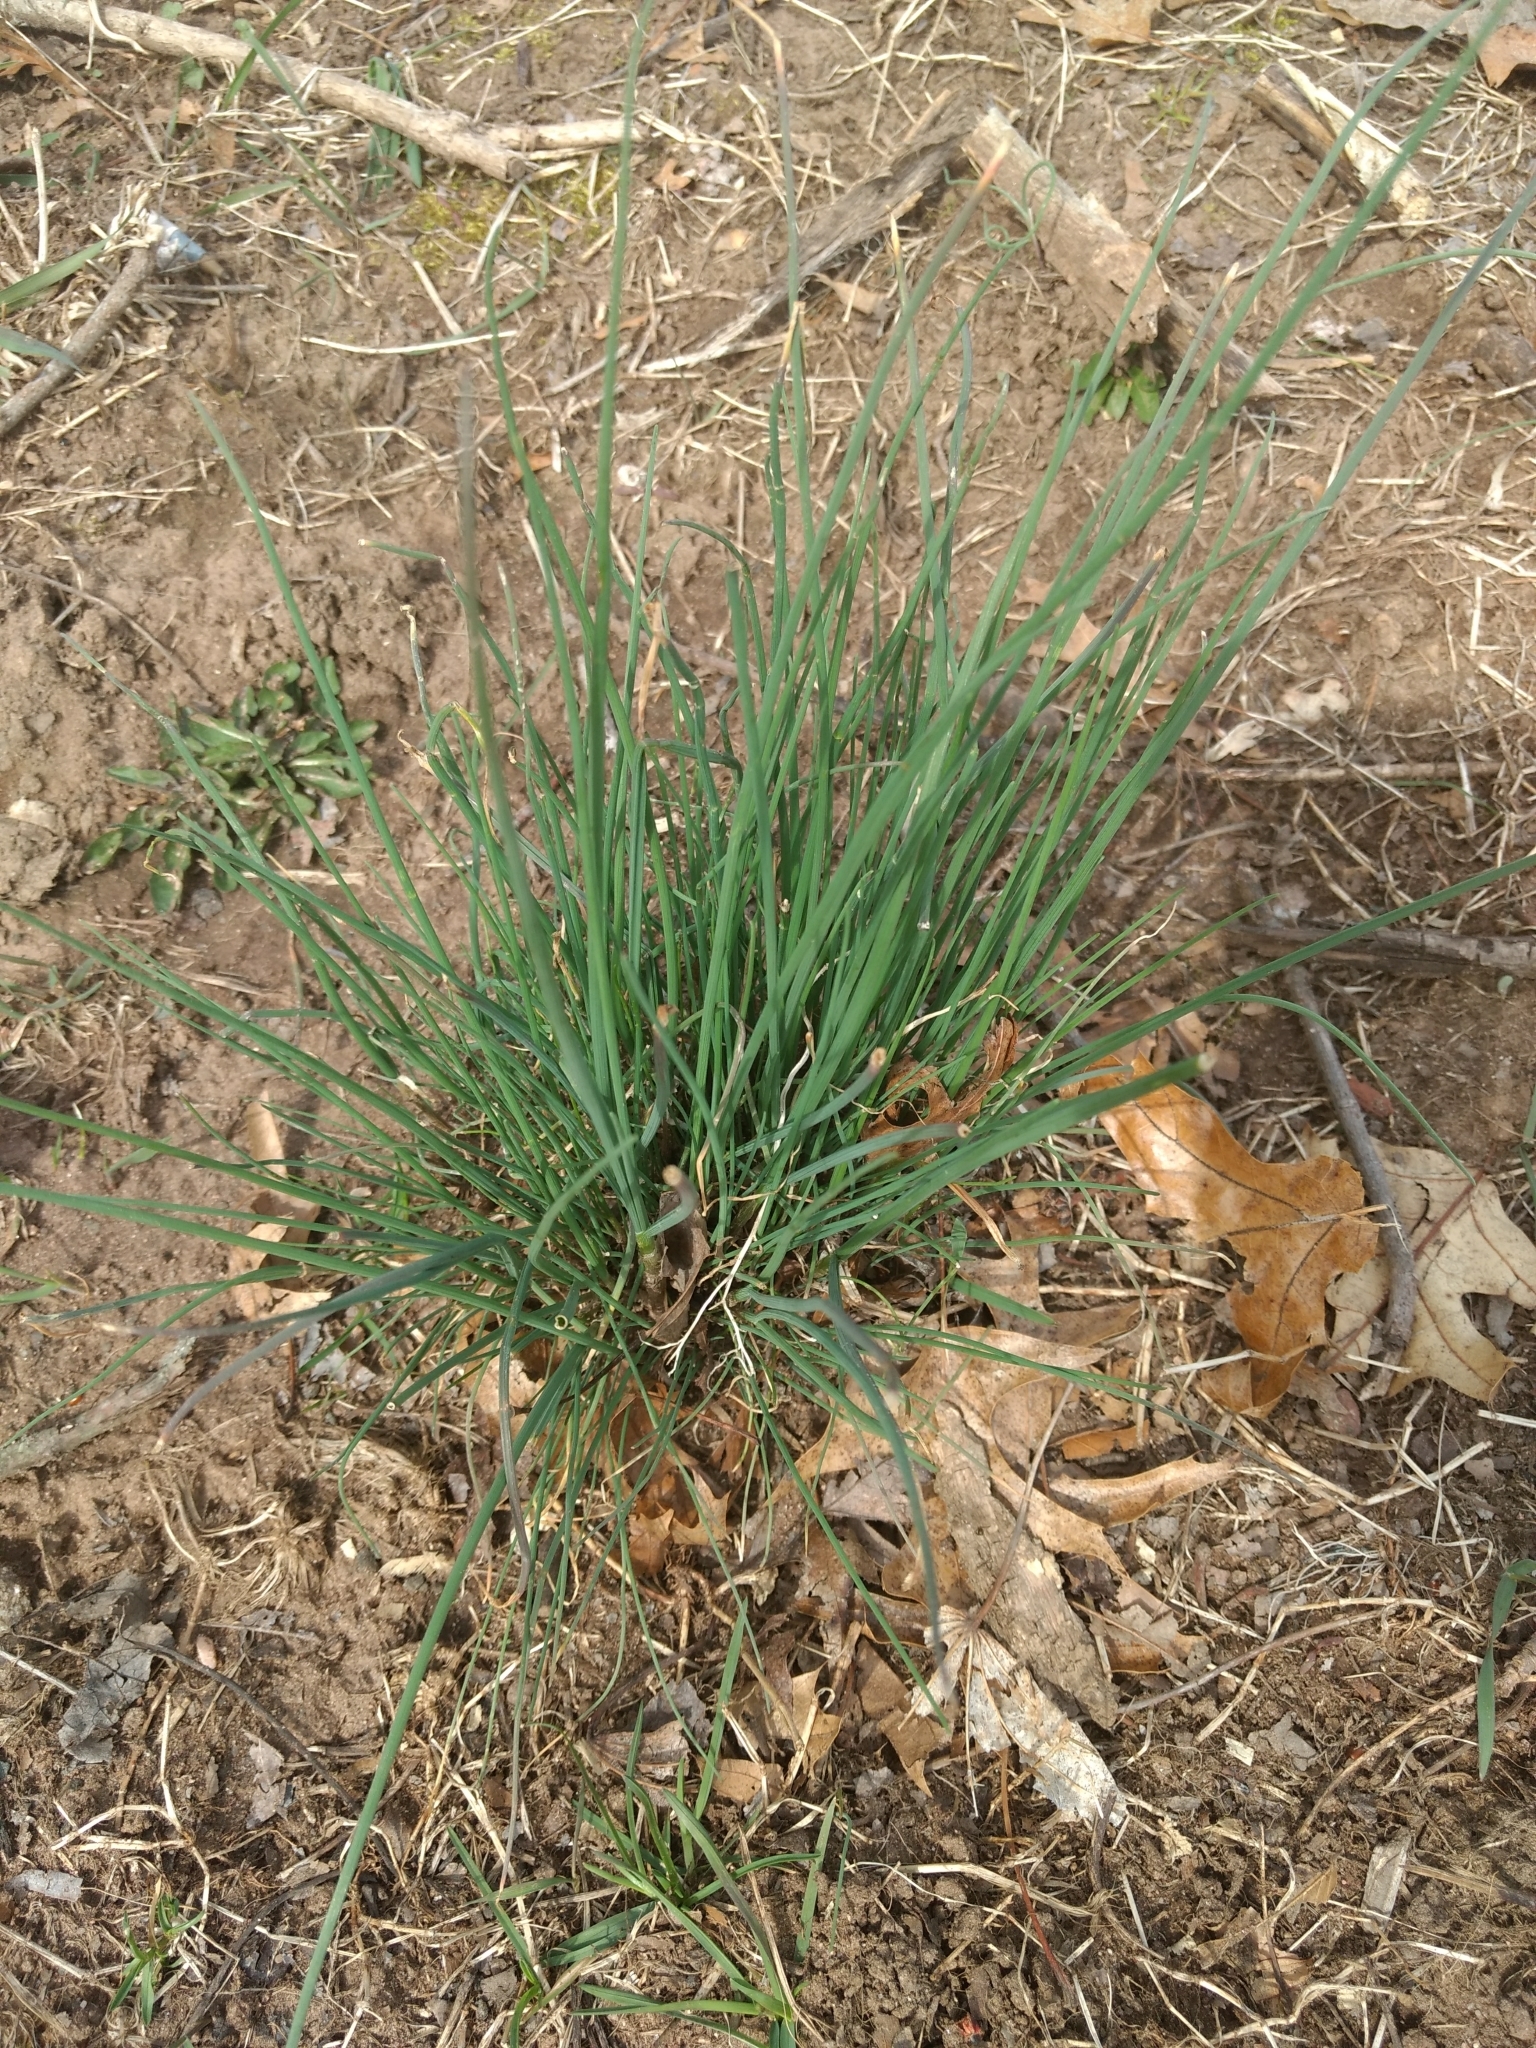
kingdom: Plantae
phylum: Tracheophyta
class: Liliopsida
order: Asparagales
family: Amaryllidaceae
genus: Allium
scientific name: Allium vineale
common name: Crow garlic
